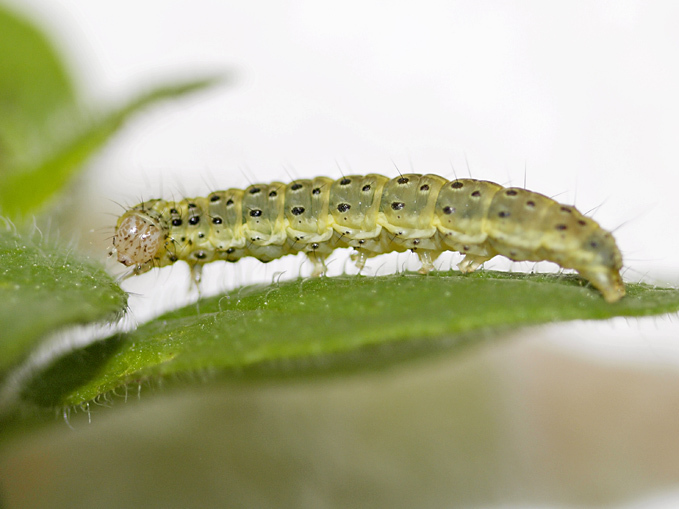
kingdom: Animalia
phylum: Arthropoda
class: Insecta
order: Lepidoptera
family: Crambidae
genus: Pyrausta
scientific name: Pyrausta aurata
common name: Small purple & gold
